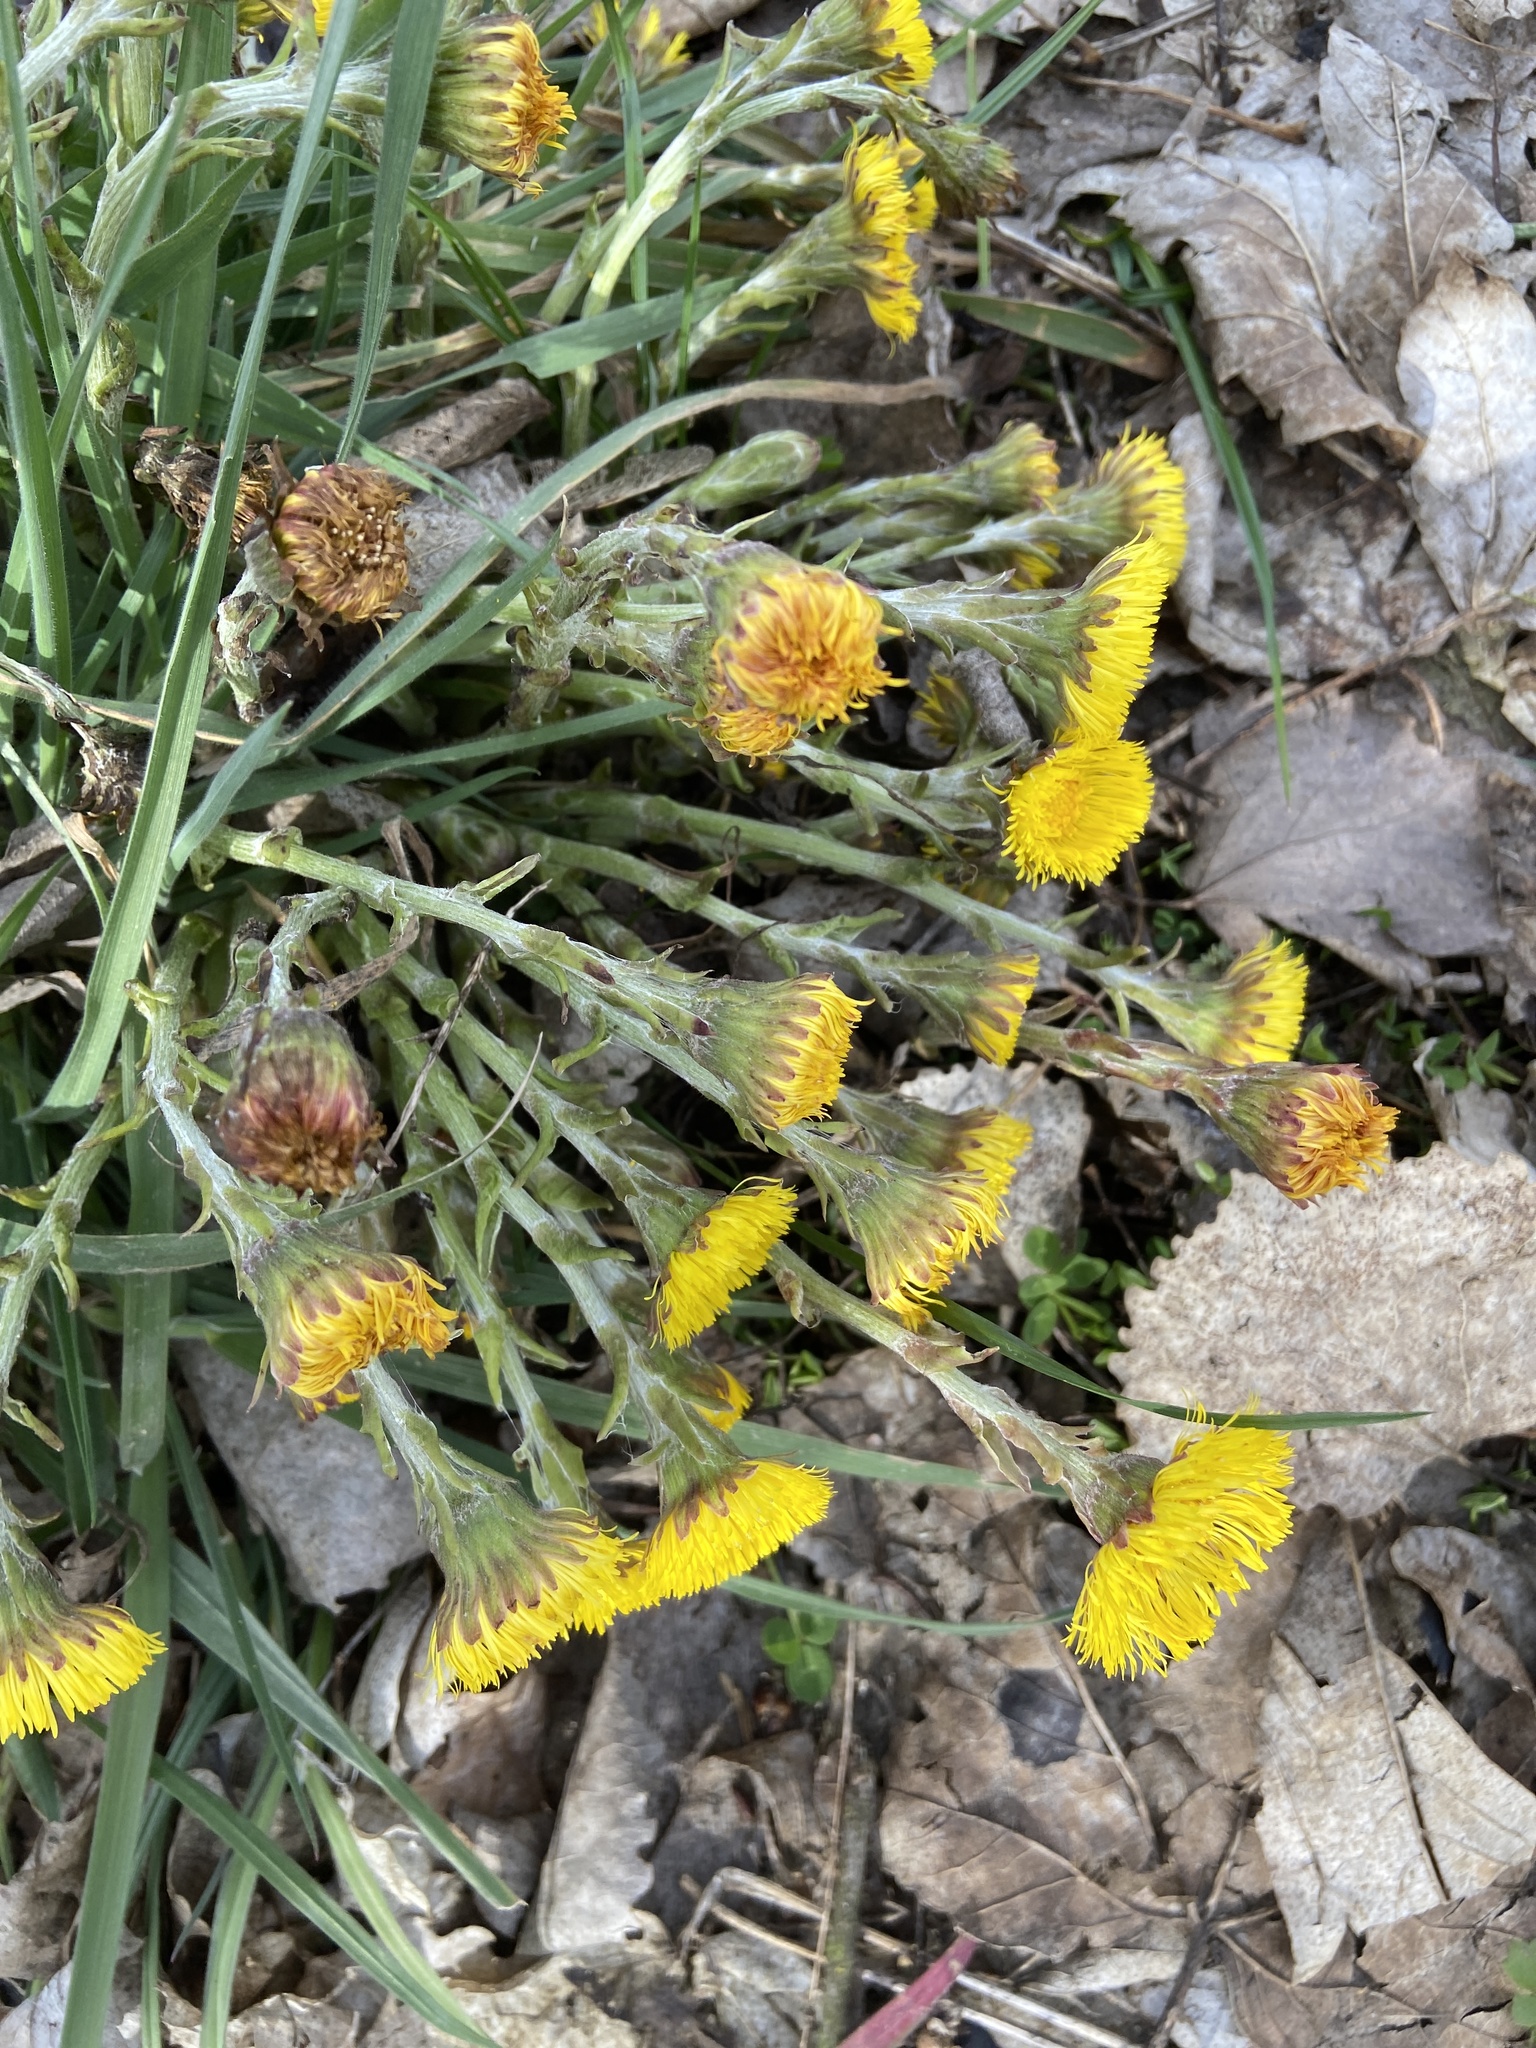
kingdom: Plantae
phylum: Tracheophyta
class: Magnoliopsida
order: Asterales
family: Asteraceae
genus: Tussilago
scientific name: Tussilago farfara
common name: Coltsfoot
